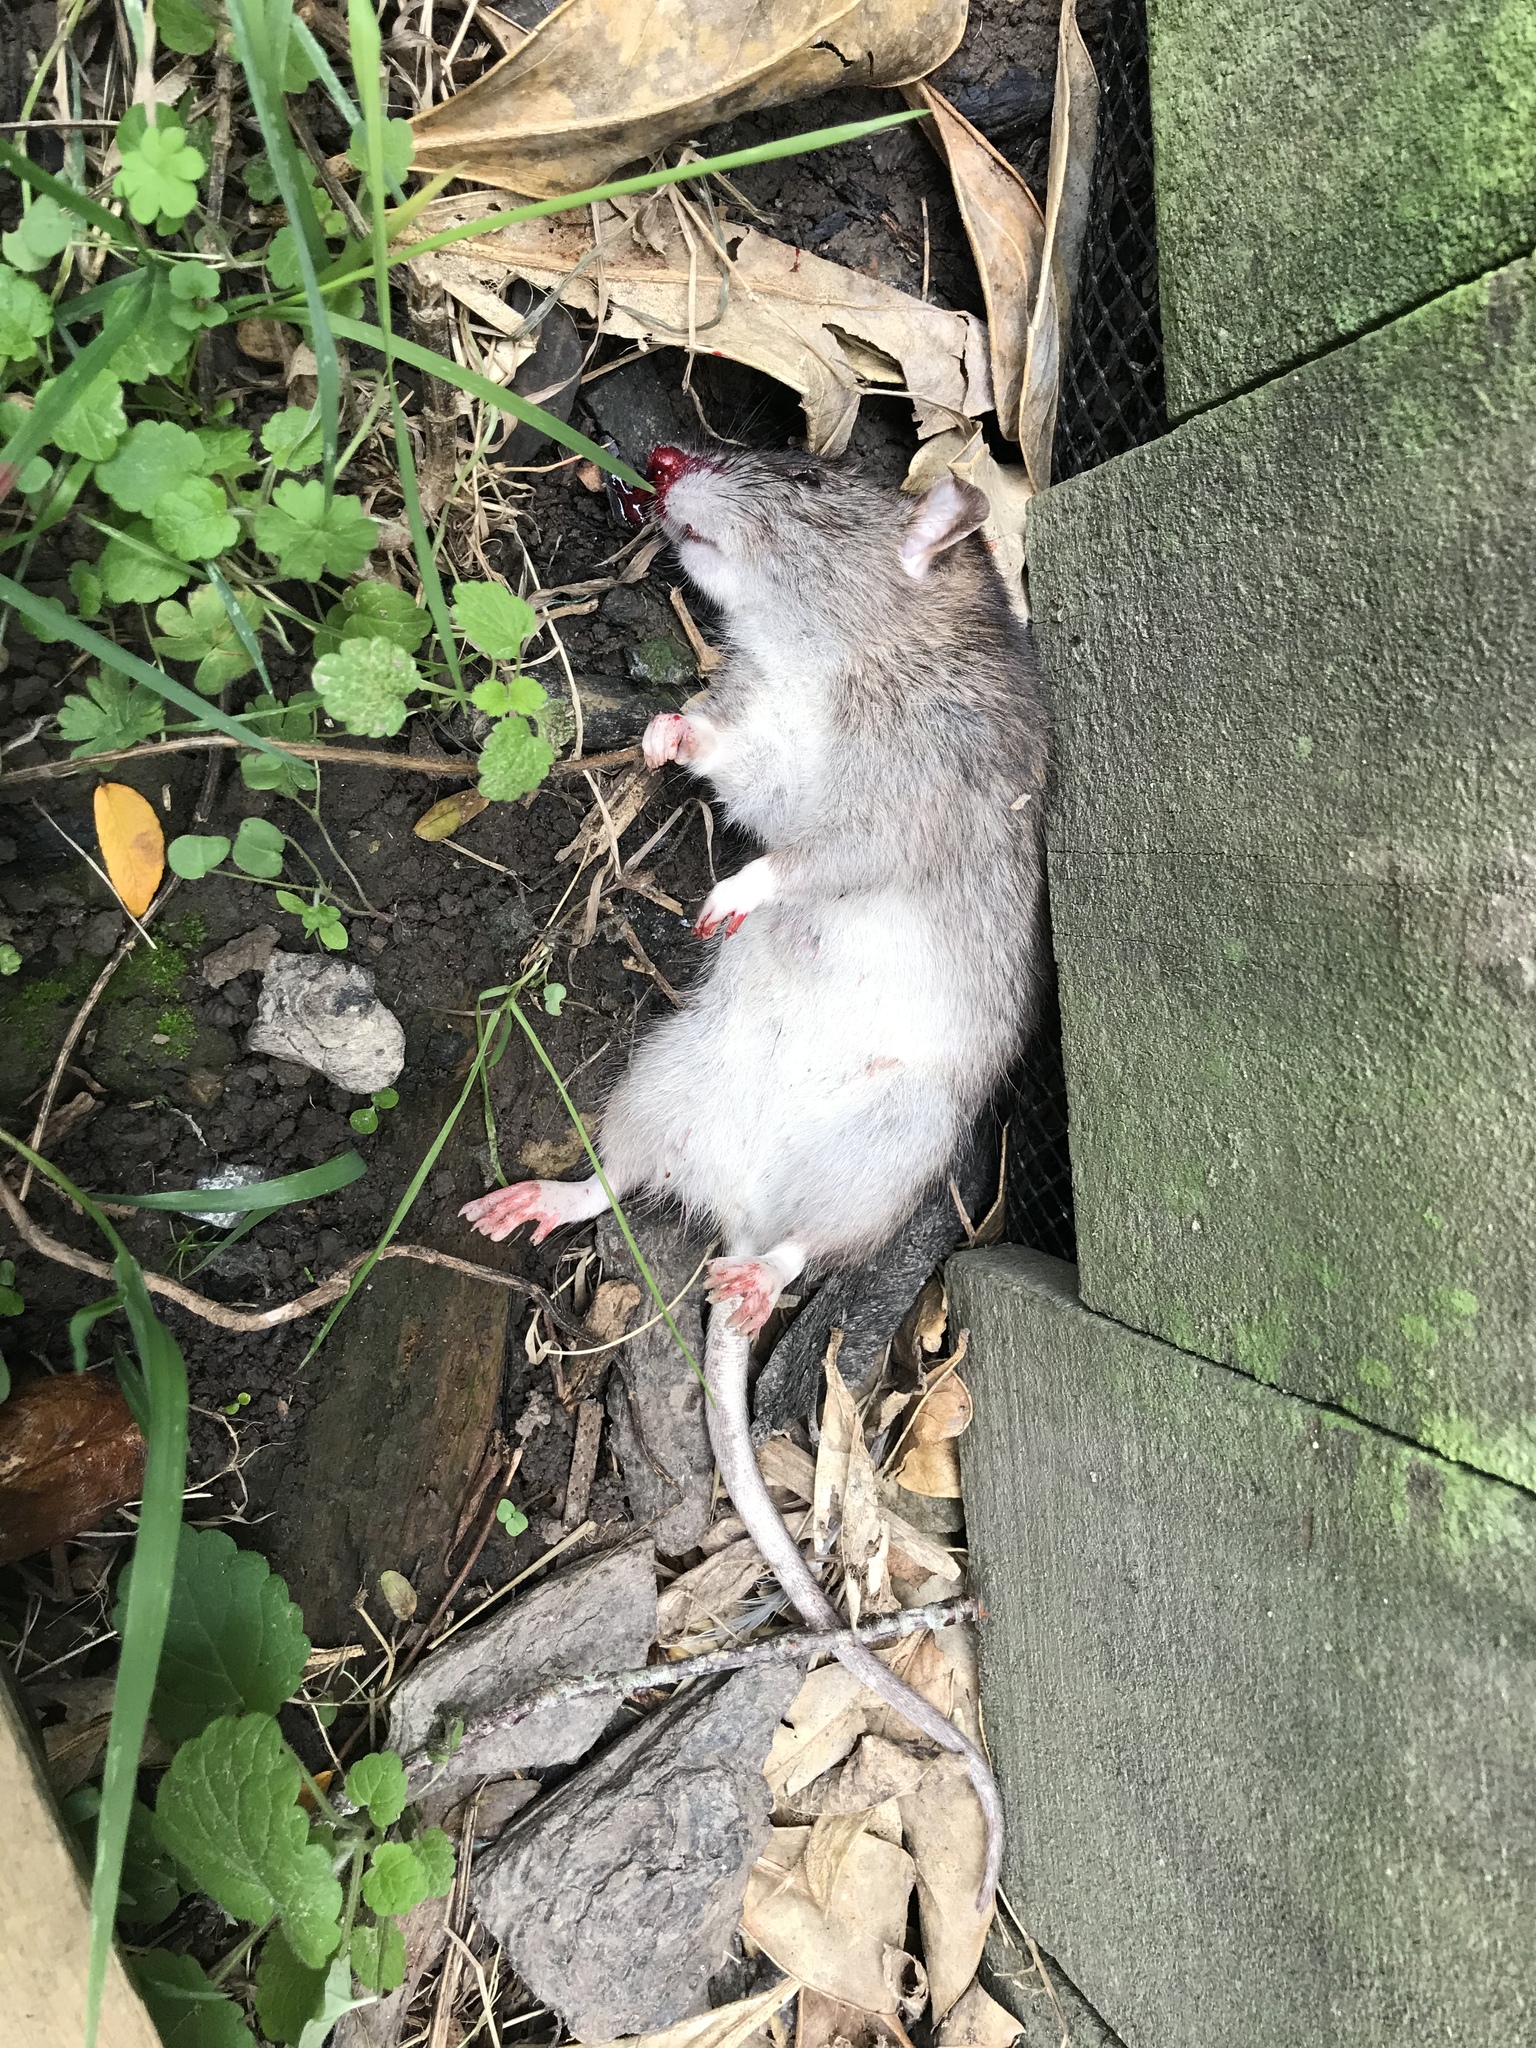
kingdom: Animalia
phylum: Chordata
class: Mammalia
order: Rodentia
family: Muridae
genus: Rattus
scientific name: Rattus norvegicus
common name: Brown rat
